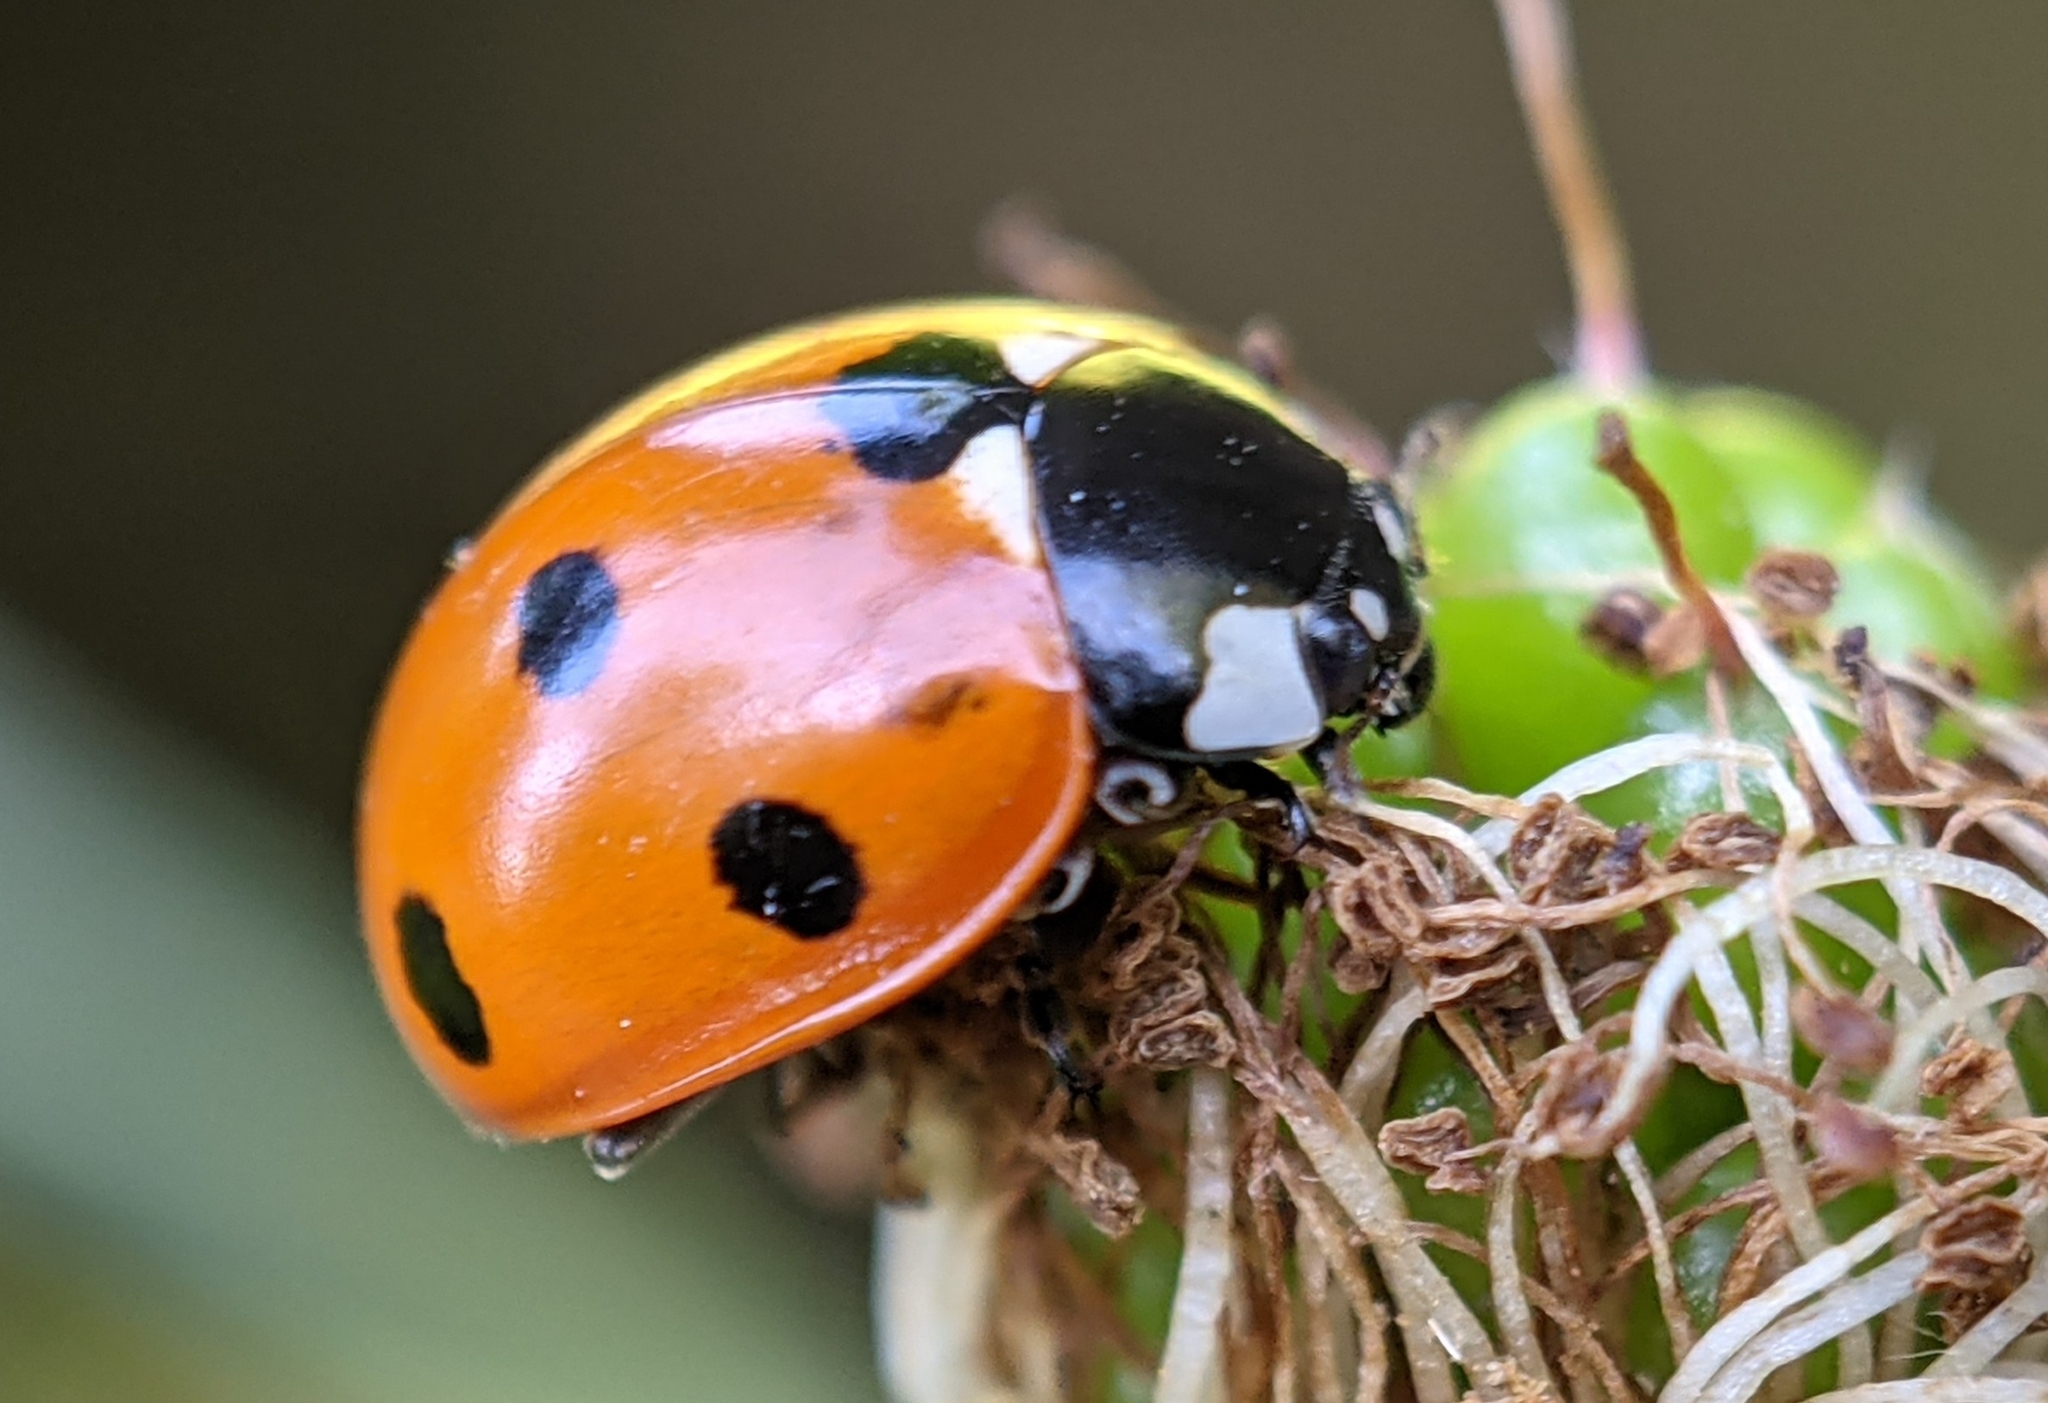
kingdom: Animalia
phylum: Arthropoda
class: Insecta
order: Coleoptera
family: Coccinellidae
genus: Coccinella
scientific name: Coccinella septempunctata
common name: Sevenspotted lady beetle
